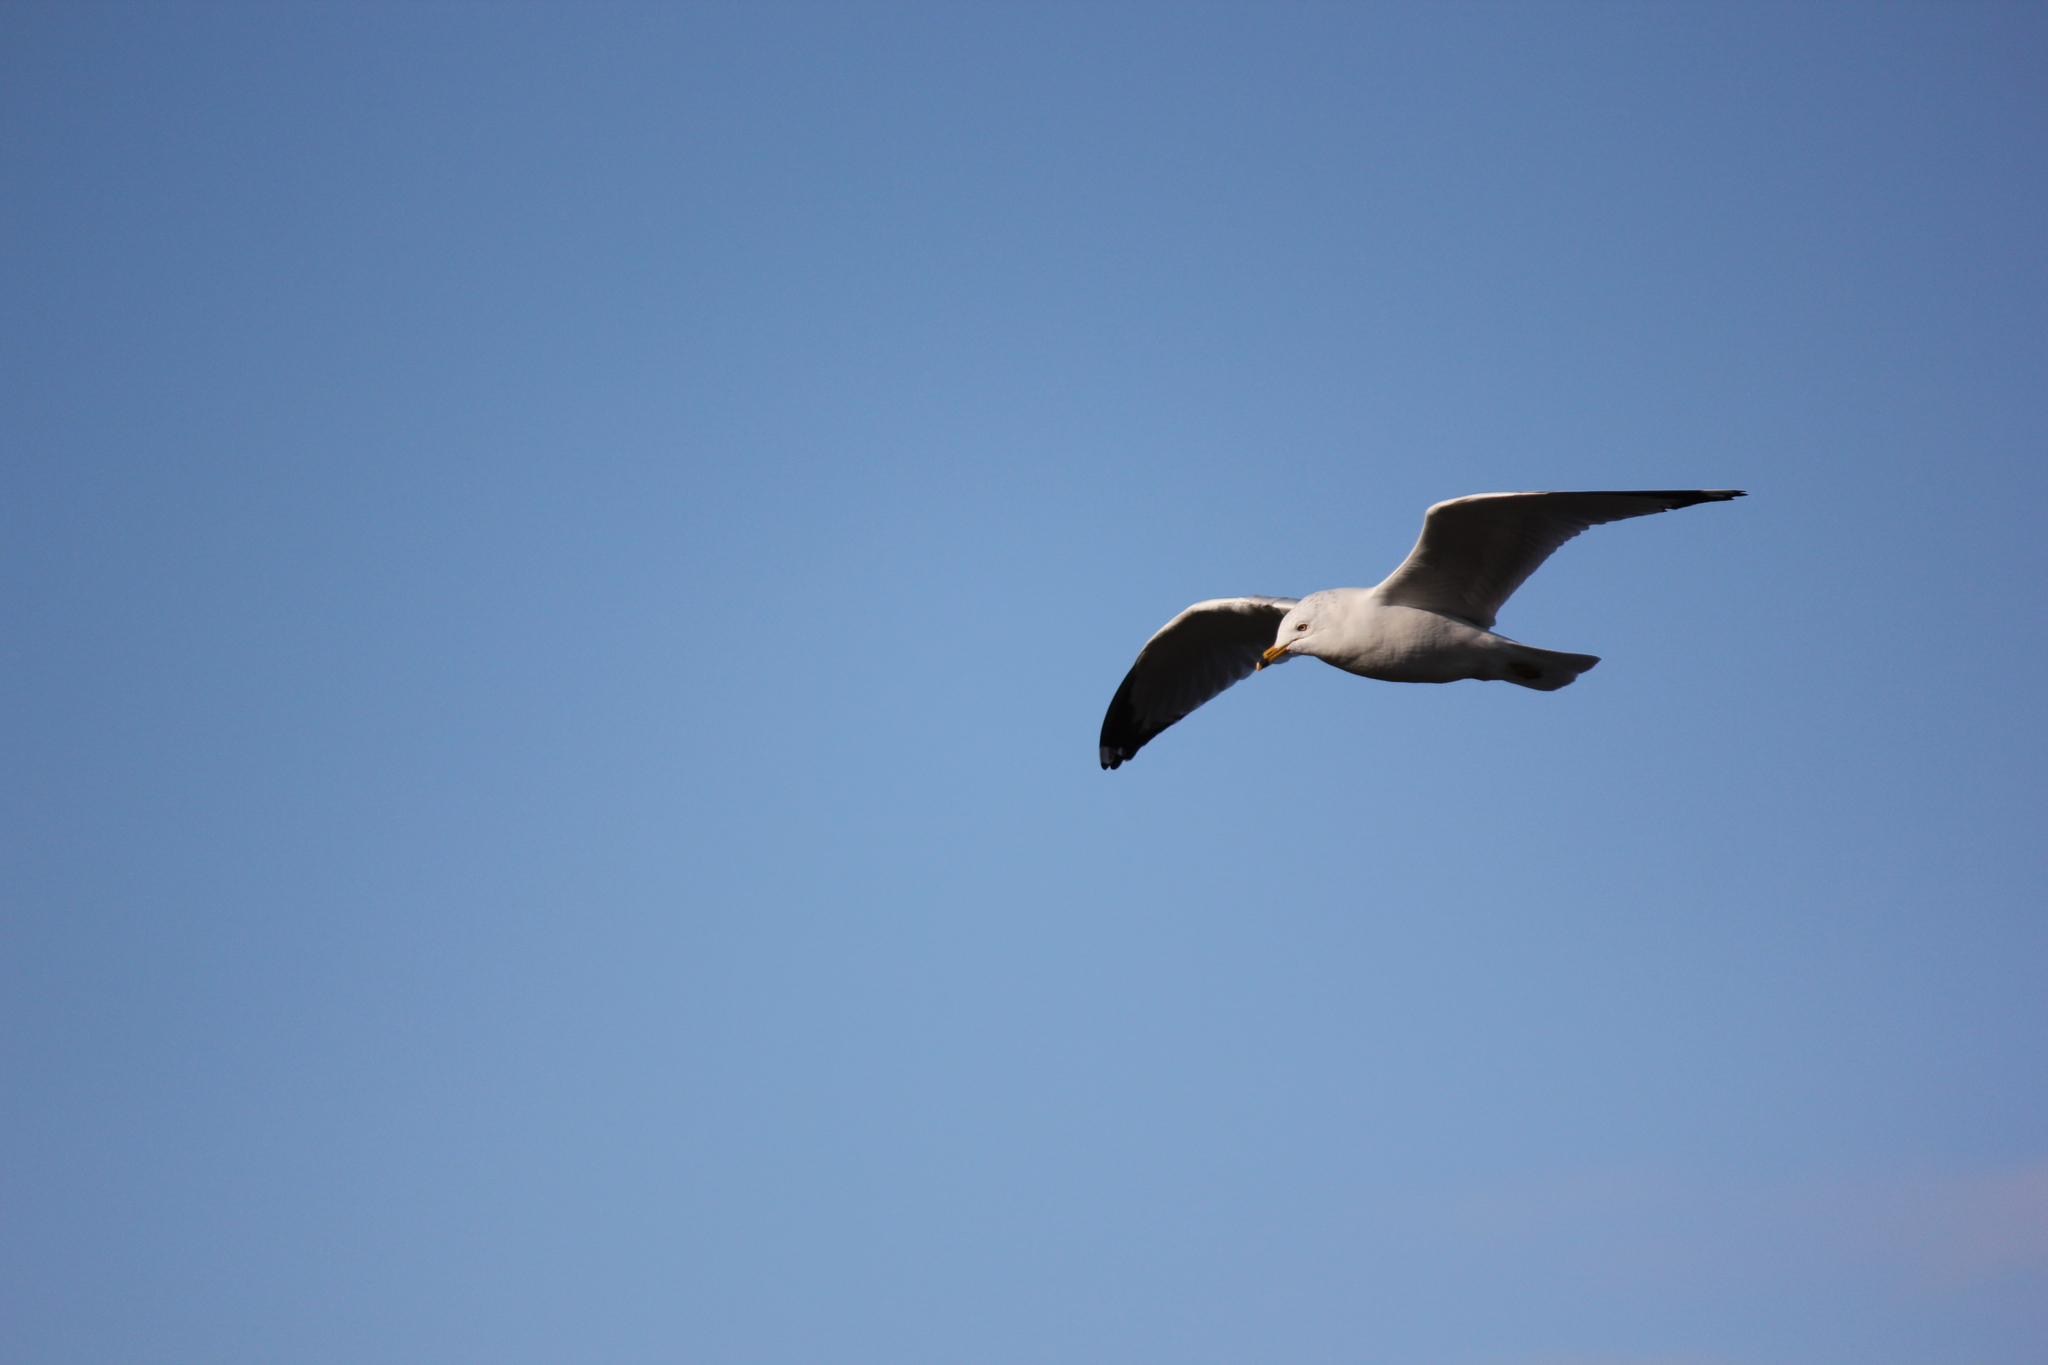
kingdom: Animalia
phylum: Chordata
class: Aves
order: Charadriiformes
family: Laridae
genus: Larus
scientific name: Larus delawarensis
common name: Ring-billed gull
